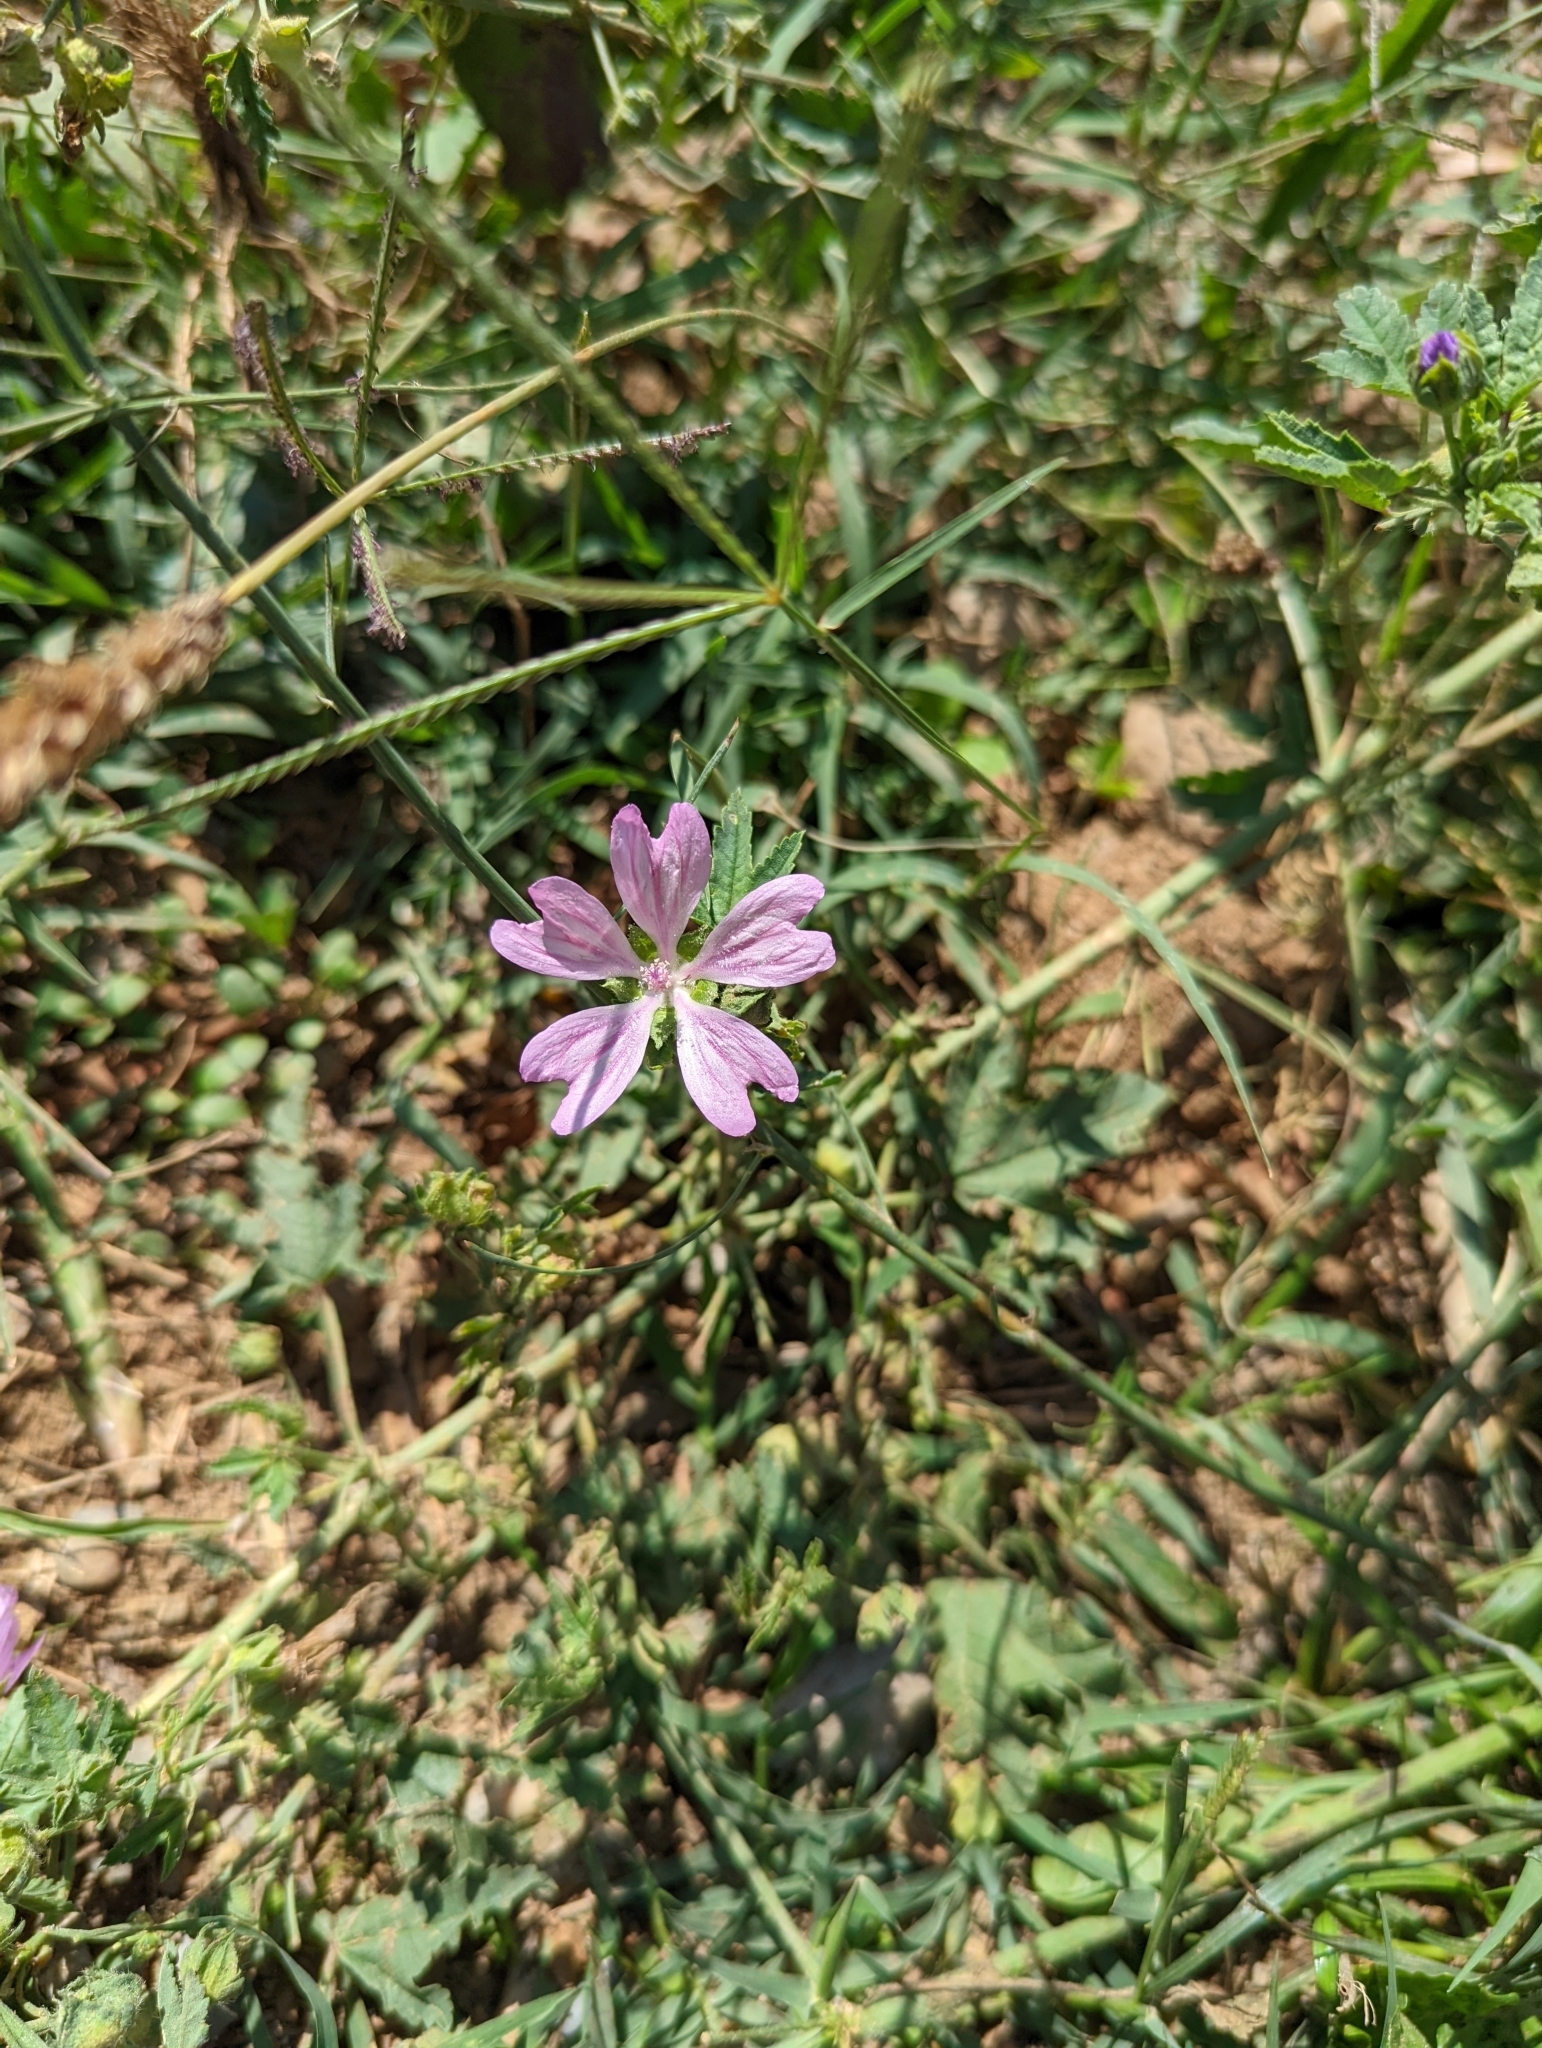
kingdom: Plantae
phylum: Tracheophyta
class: Magnoliopsida
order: Malvales
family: Malvaceae
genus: Malva
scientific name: Malva sylvestris
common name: Common mallow
